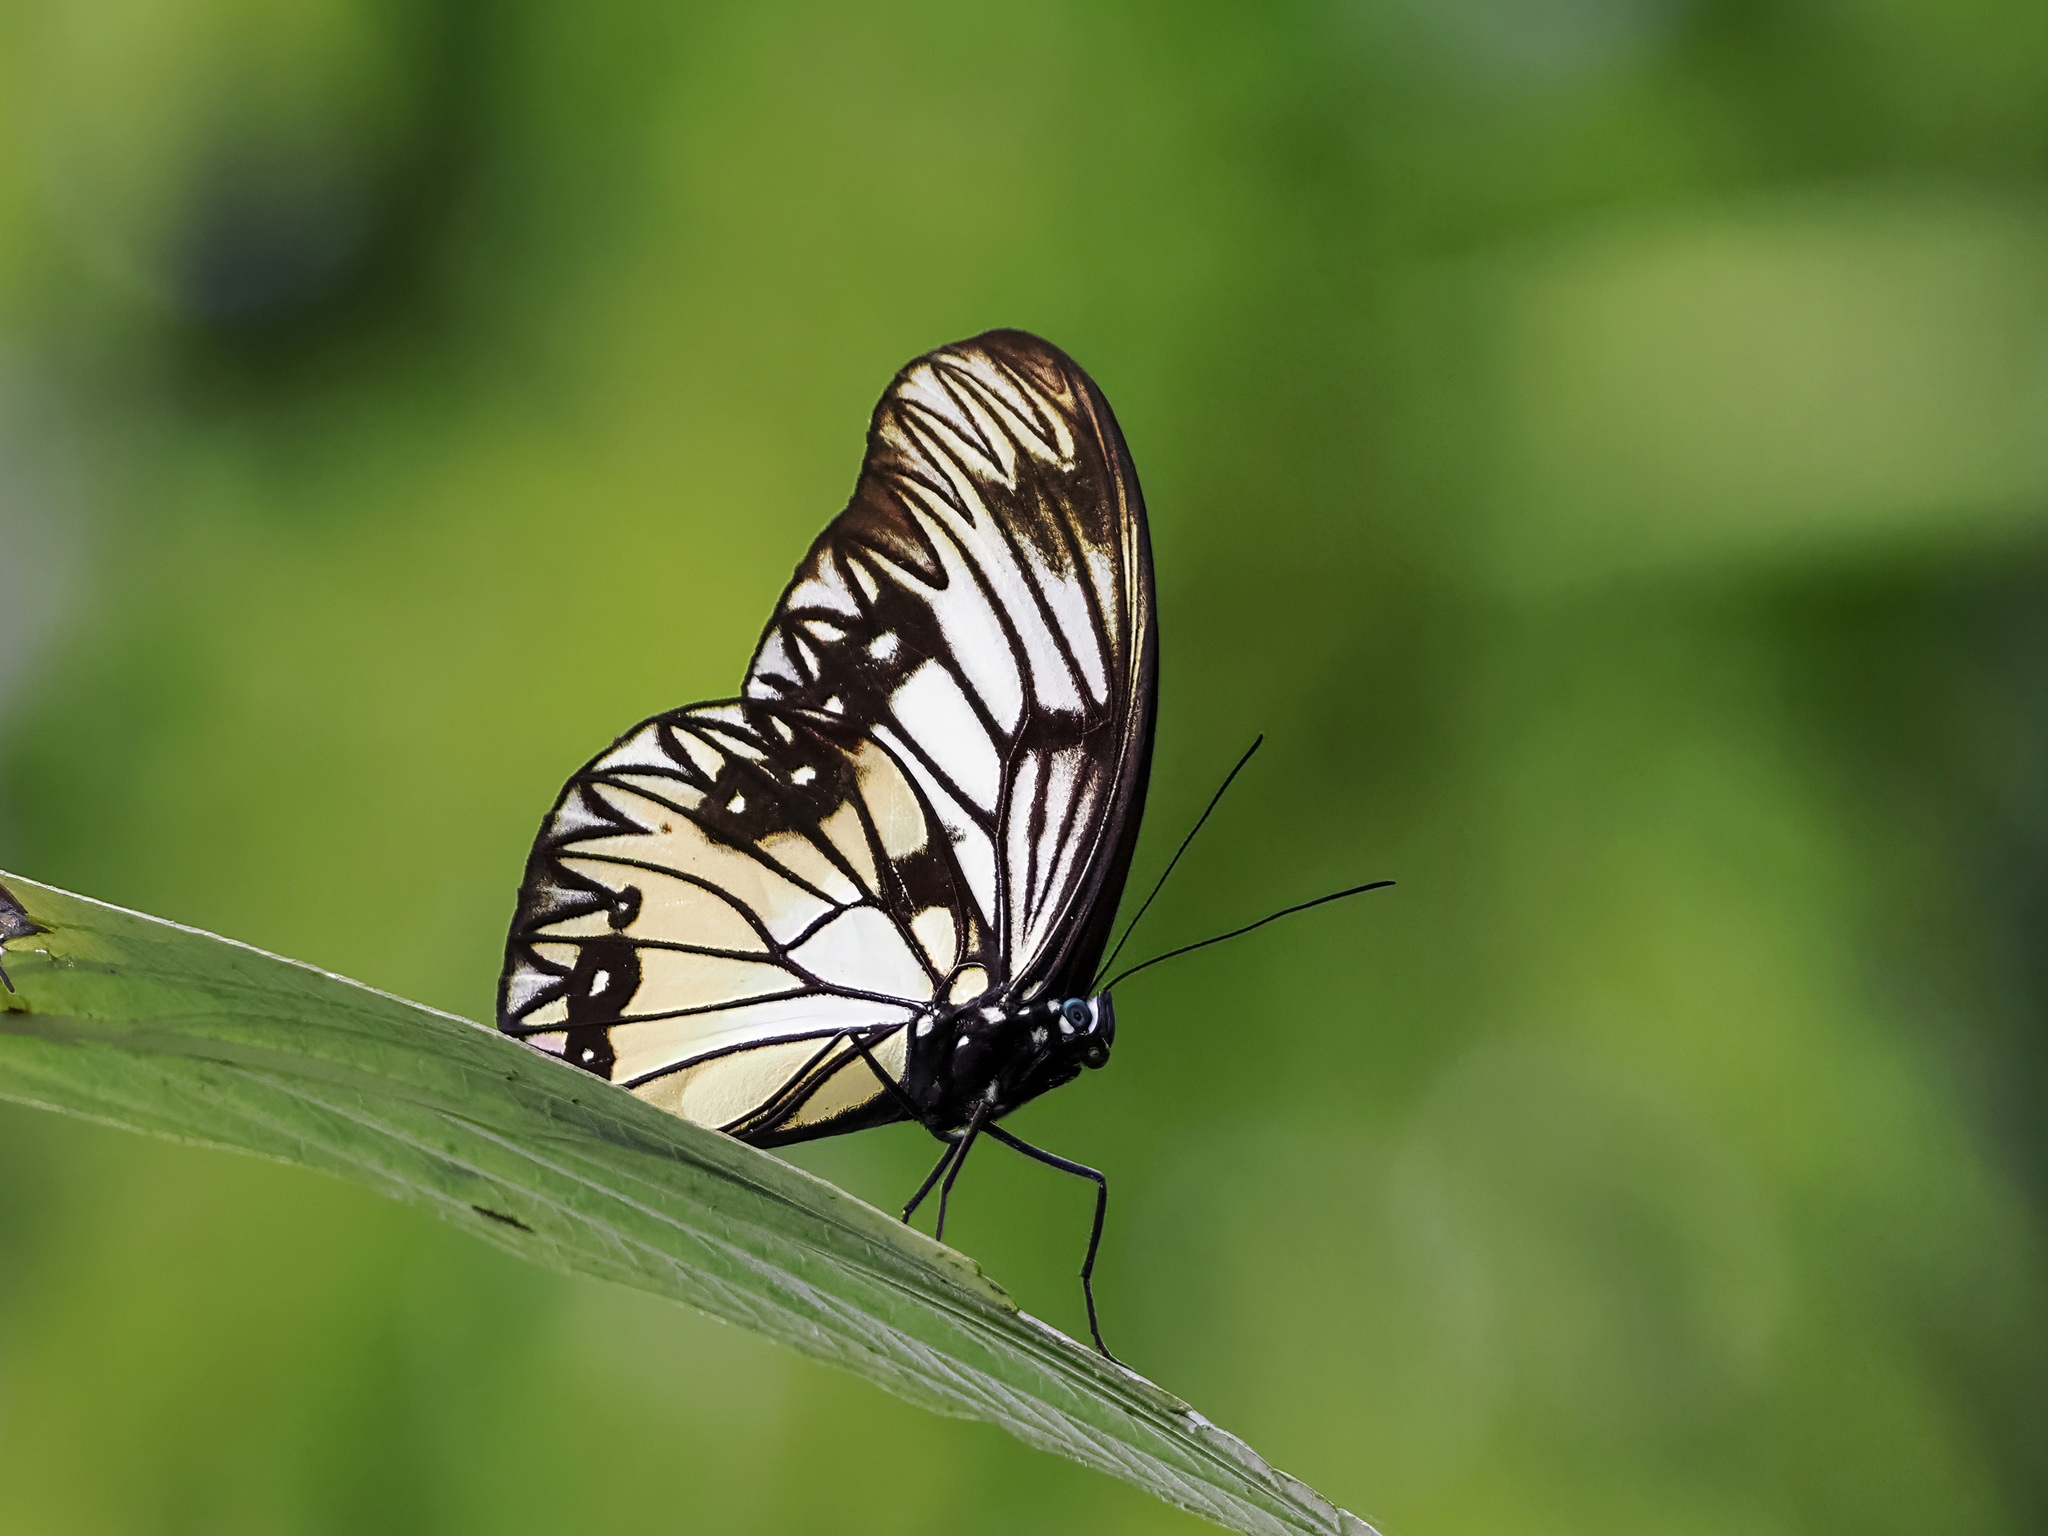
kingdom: Animalia
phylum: Arthropoda
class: Insecta
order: Lepidoptera
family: Nymphalidae
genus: Zethera
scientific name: Zethera incerta
